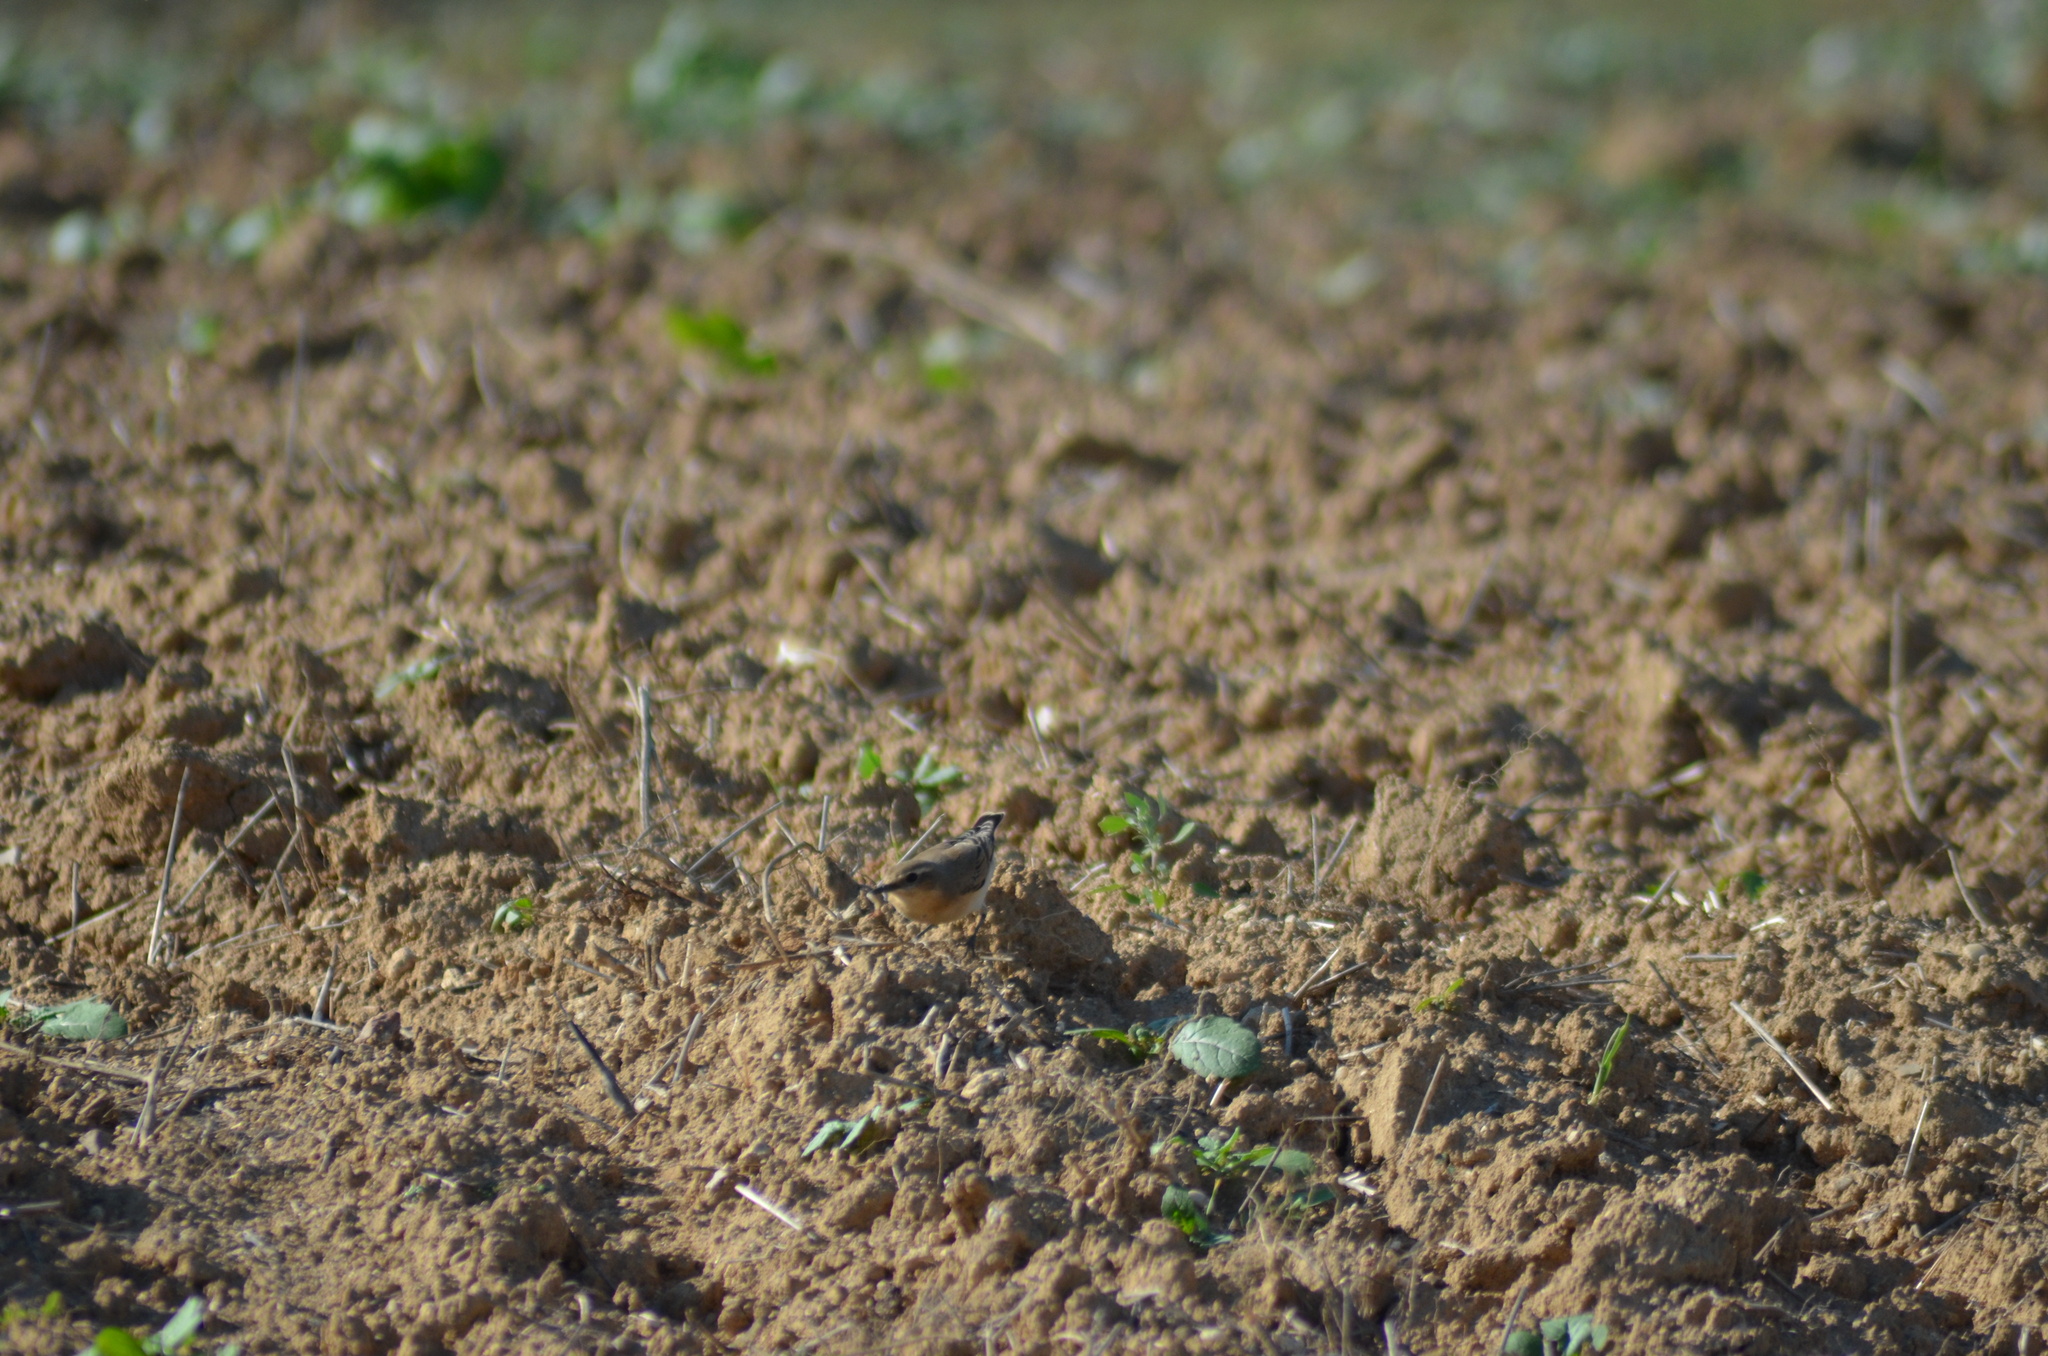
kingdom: Animalia
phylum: Chordata
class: Aves
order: Passeriformes
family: Muscicapidae
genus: Oenanthe
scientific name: Oenanthe oenanthe
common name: Northern wheatear
